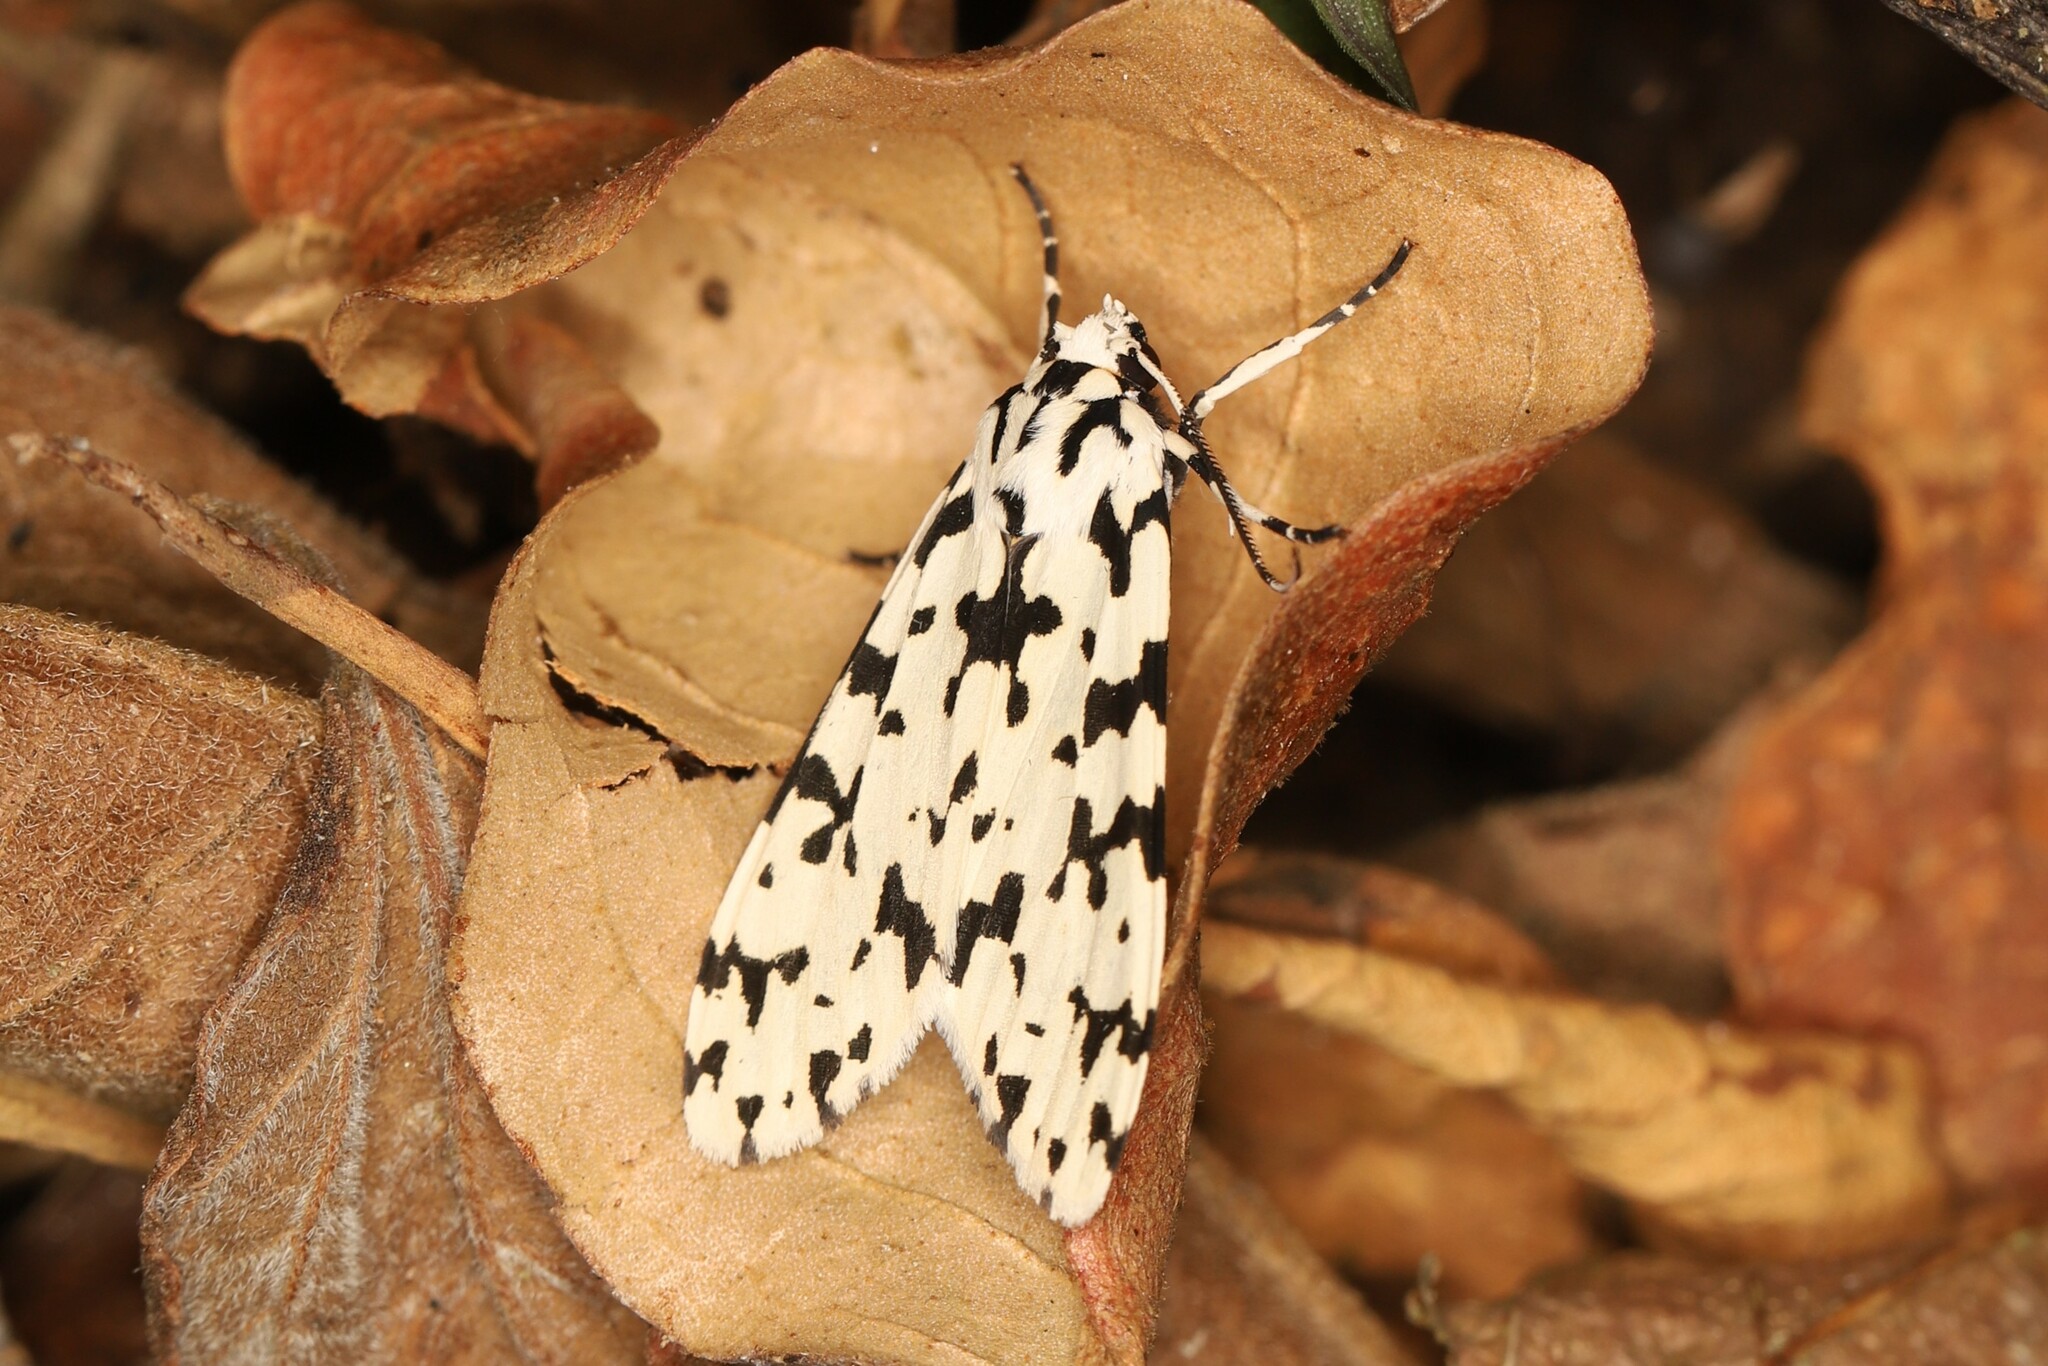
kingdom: Animalia
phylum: Arthropoda
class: Insecta
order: Lepidoptera
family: Erebidae
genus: Eucereon
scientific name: Eucereon tigrata
